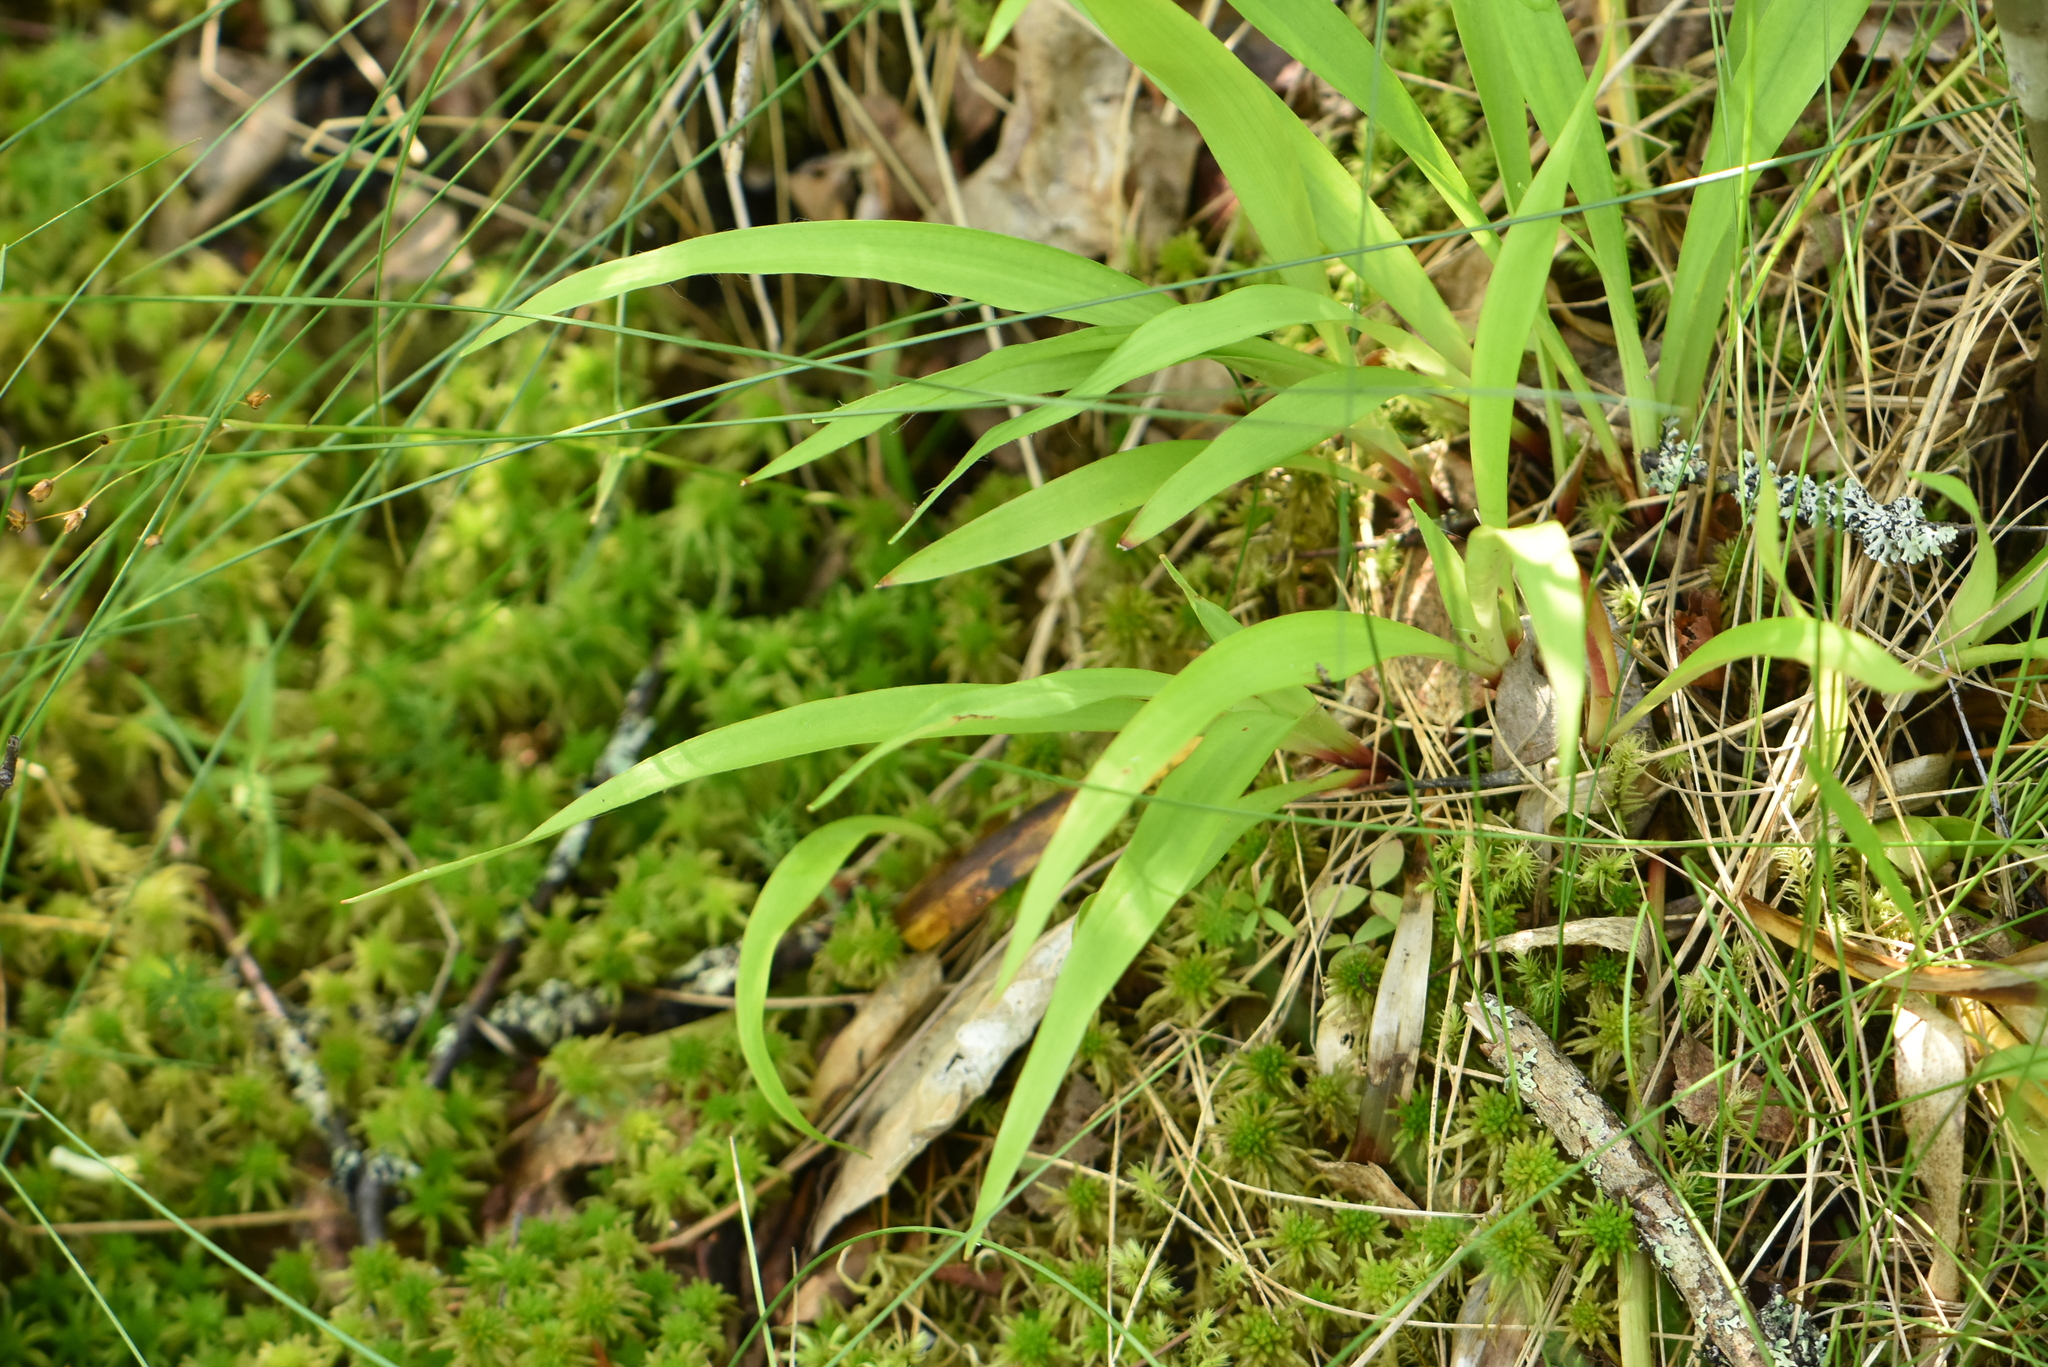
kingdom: Plantae
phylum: Tracheophyta
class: Liliopsida
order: Poales
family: Juncaceae
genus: Luzula
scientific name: Luzula pilosa
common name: Hairy wood-rush
